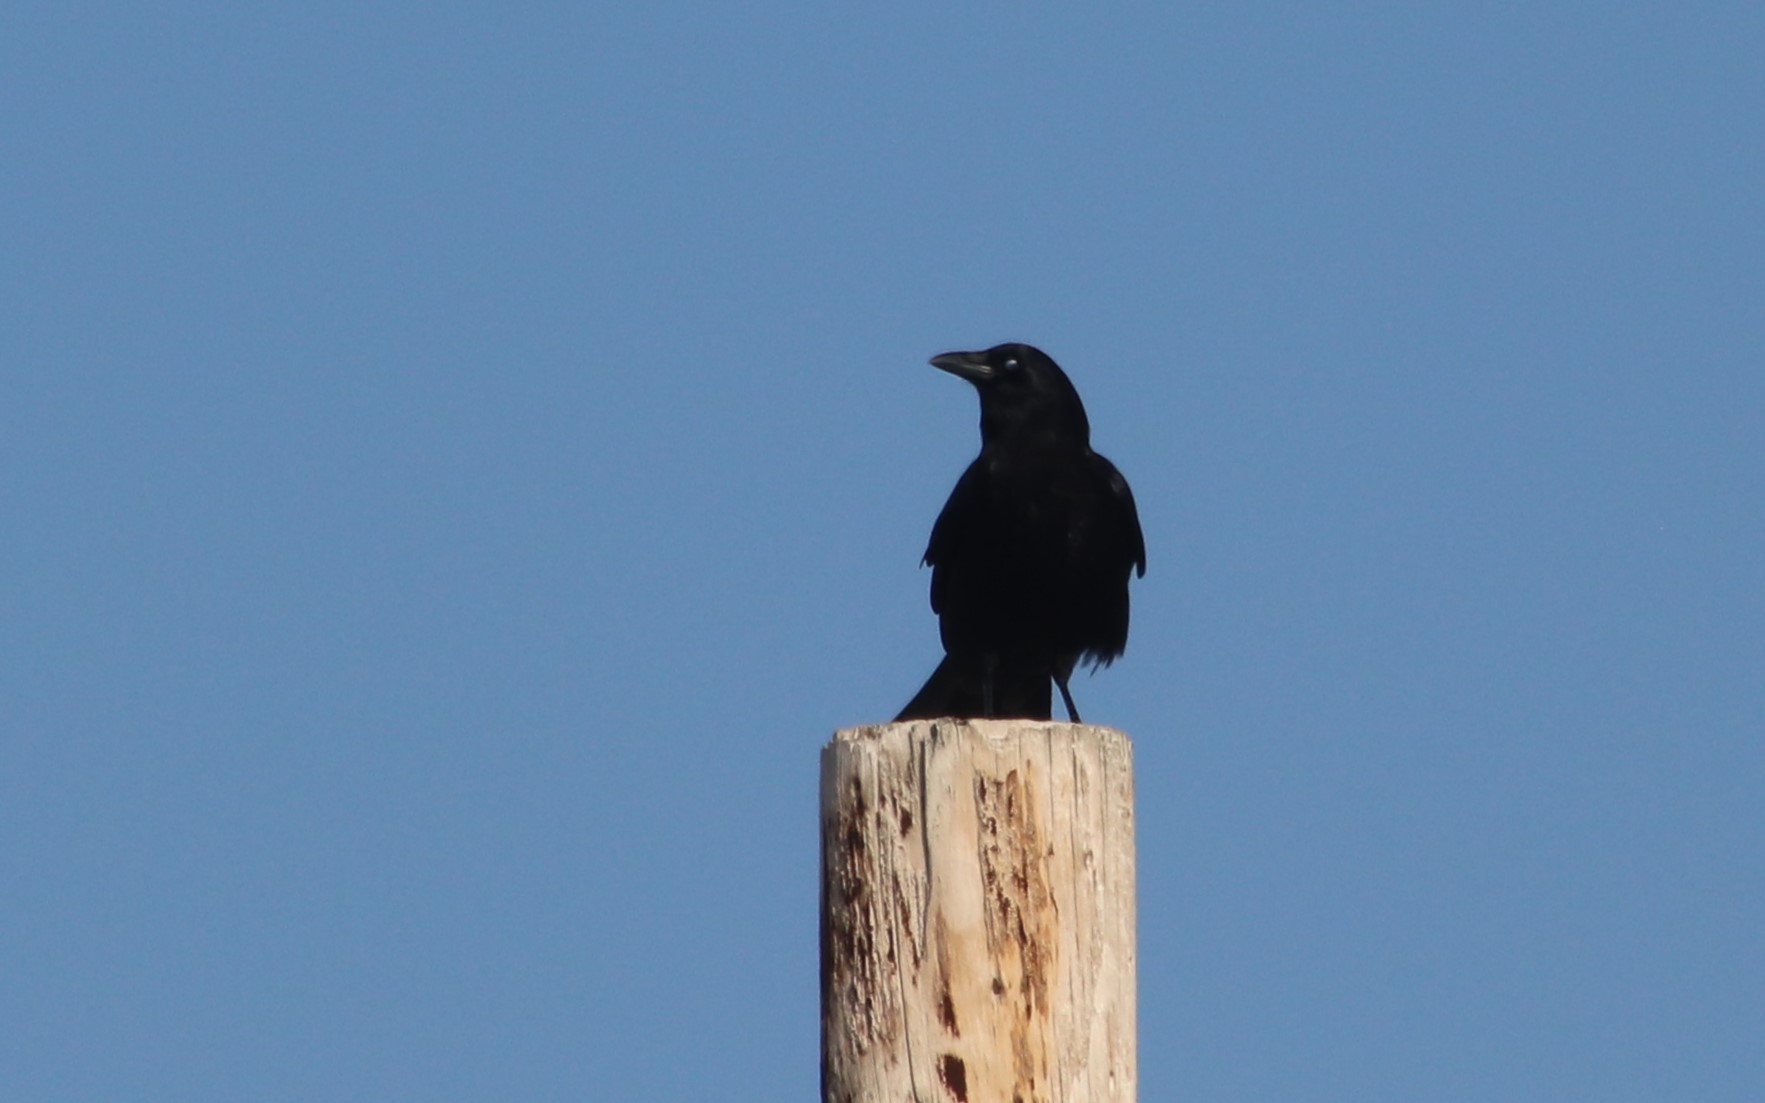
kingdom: Animalia
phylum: Chordata
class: Aves
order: Passeriformes
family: Corvidae
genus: Corvus
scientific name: Corvus brachyrhynchos
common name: American crow
